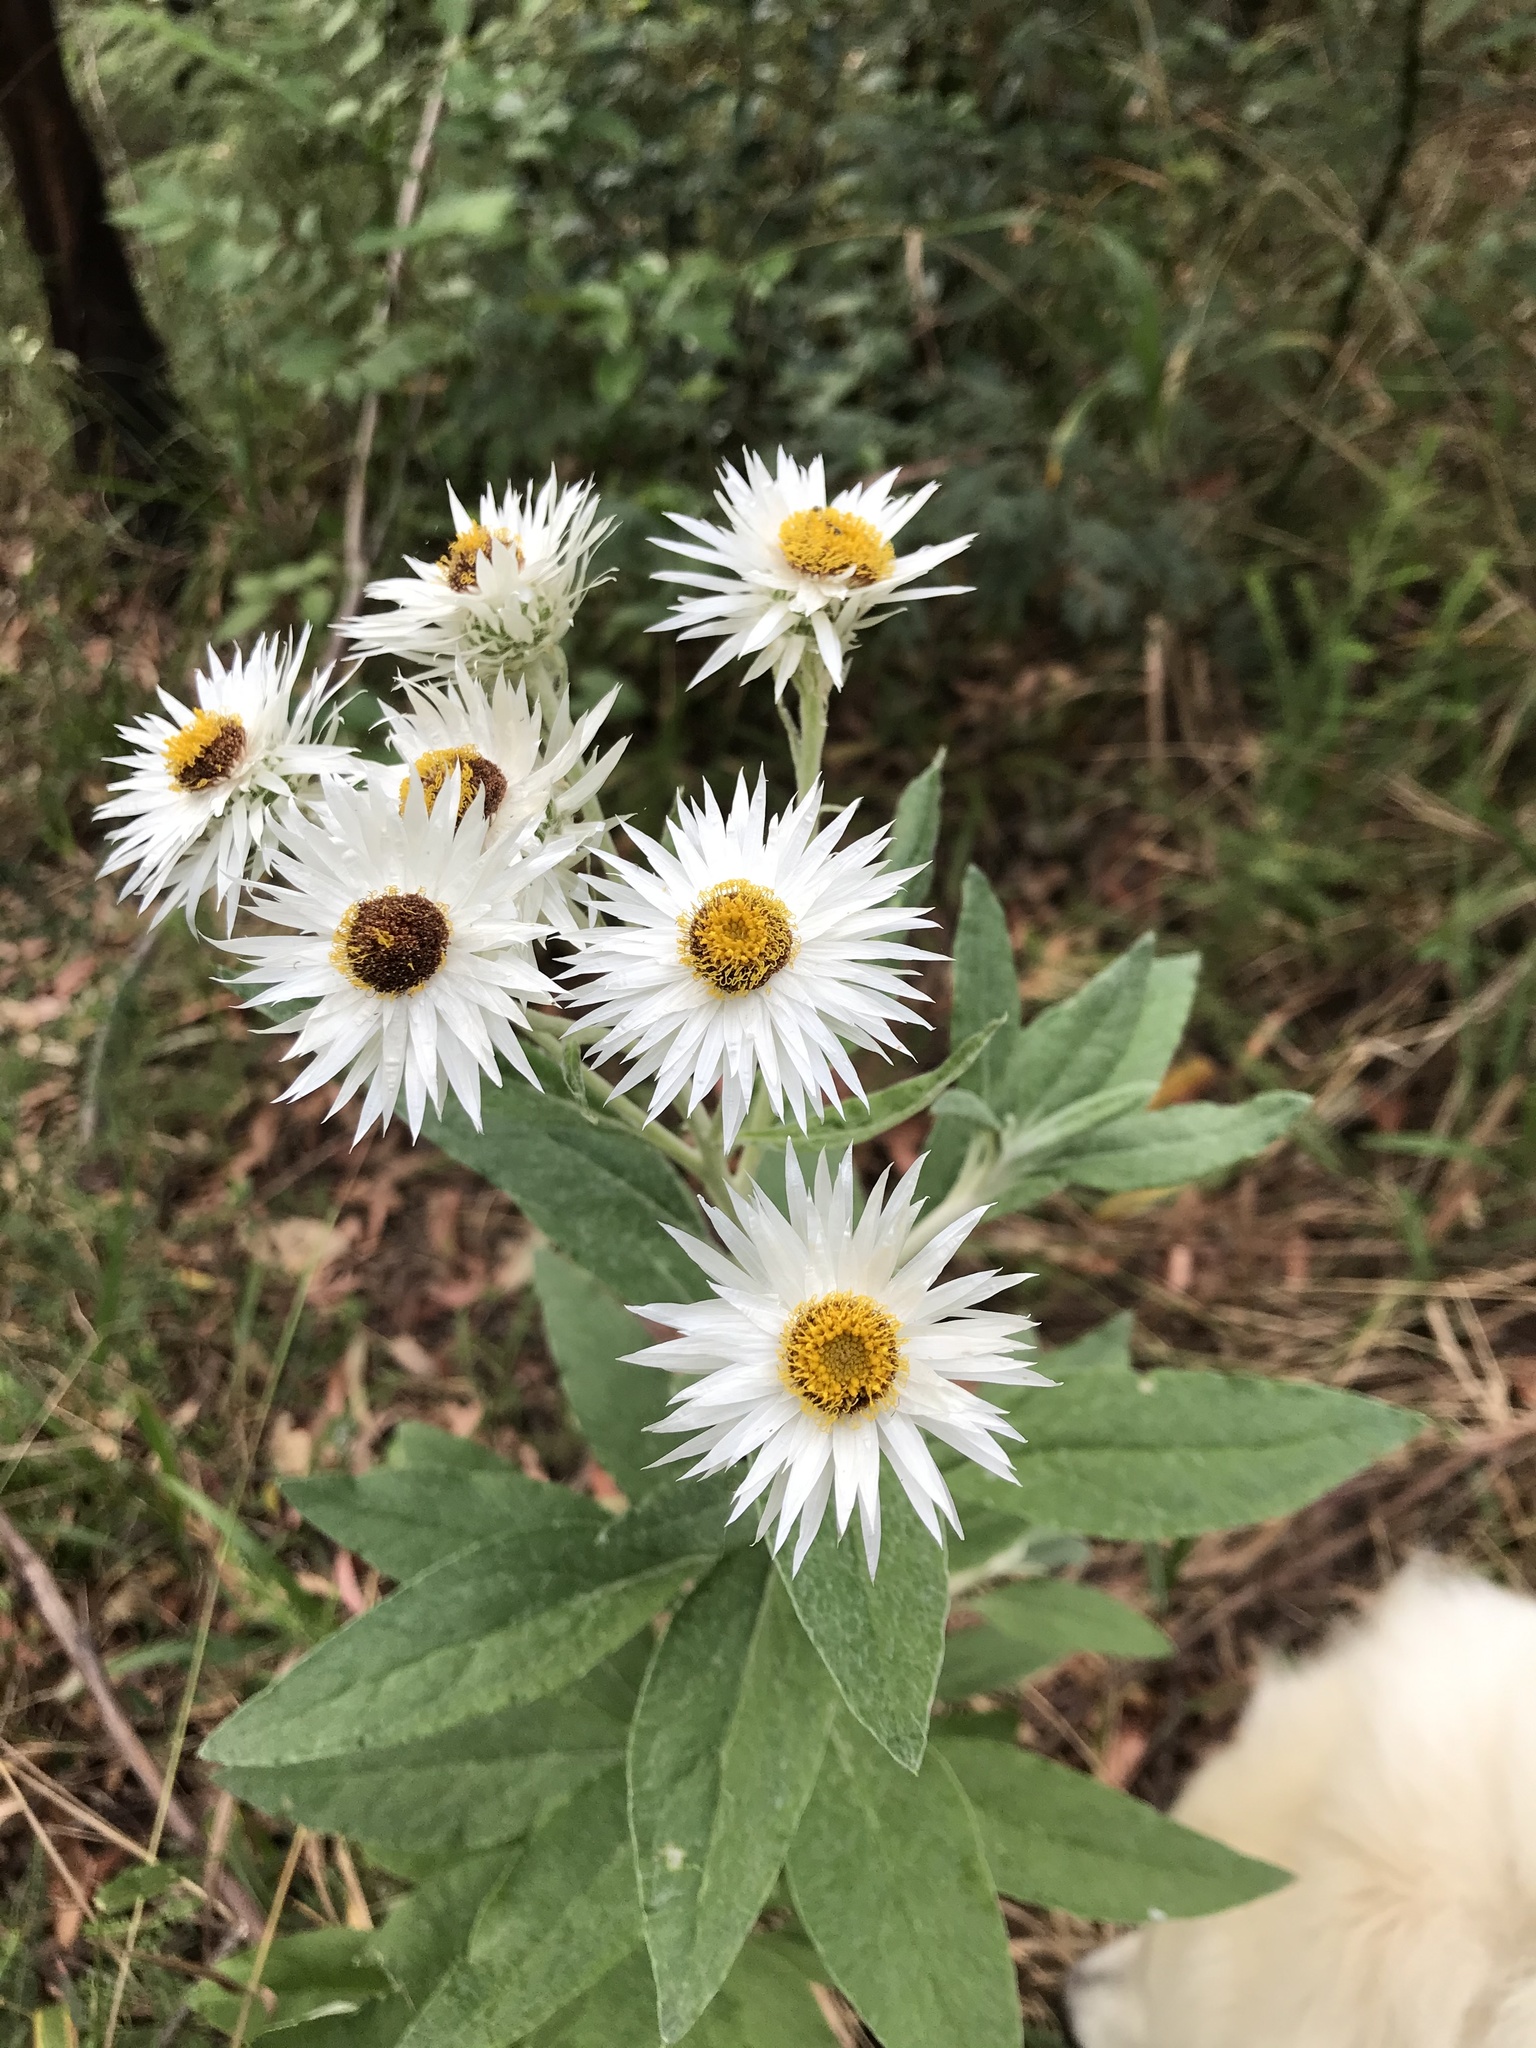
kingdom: Plantae
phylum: Tracheophyta
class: Magnoliopsida
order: Asterales
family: Asteraceae
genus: Leucozoma
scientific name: Leucozoma elatum
